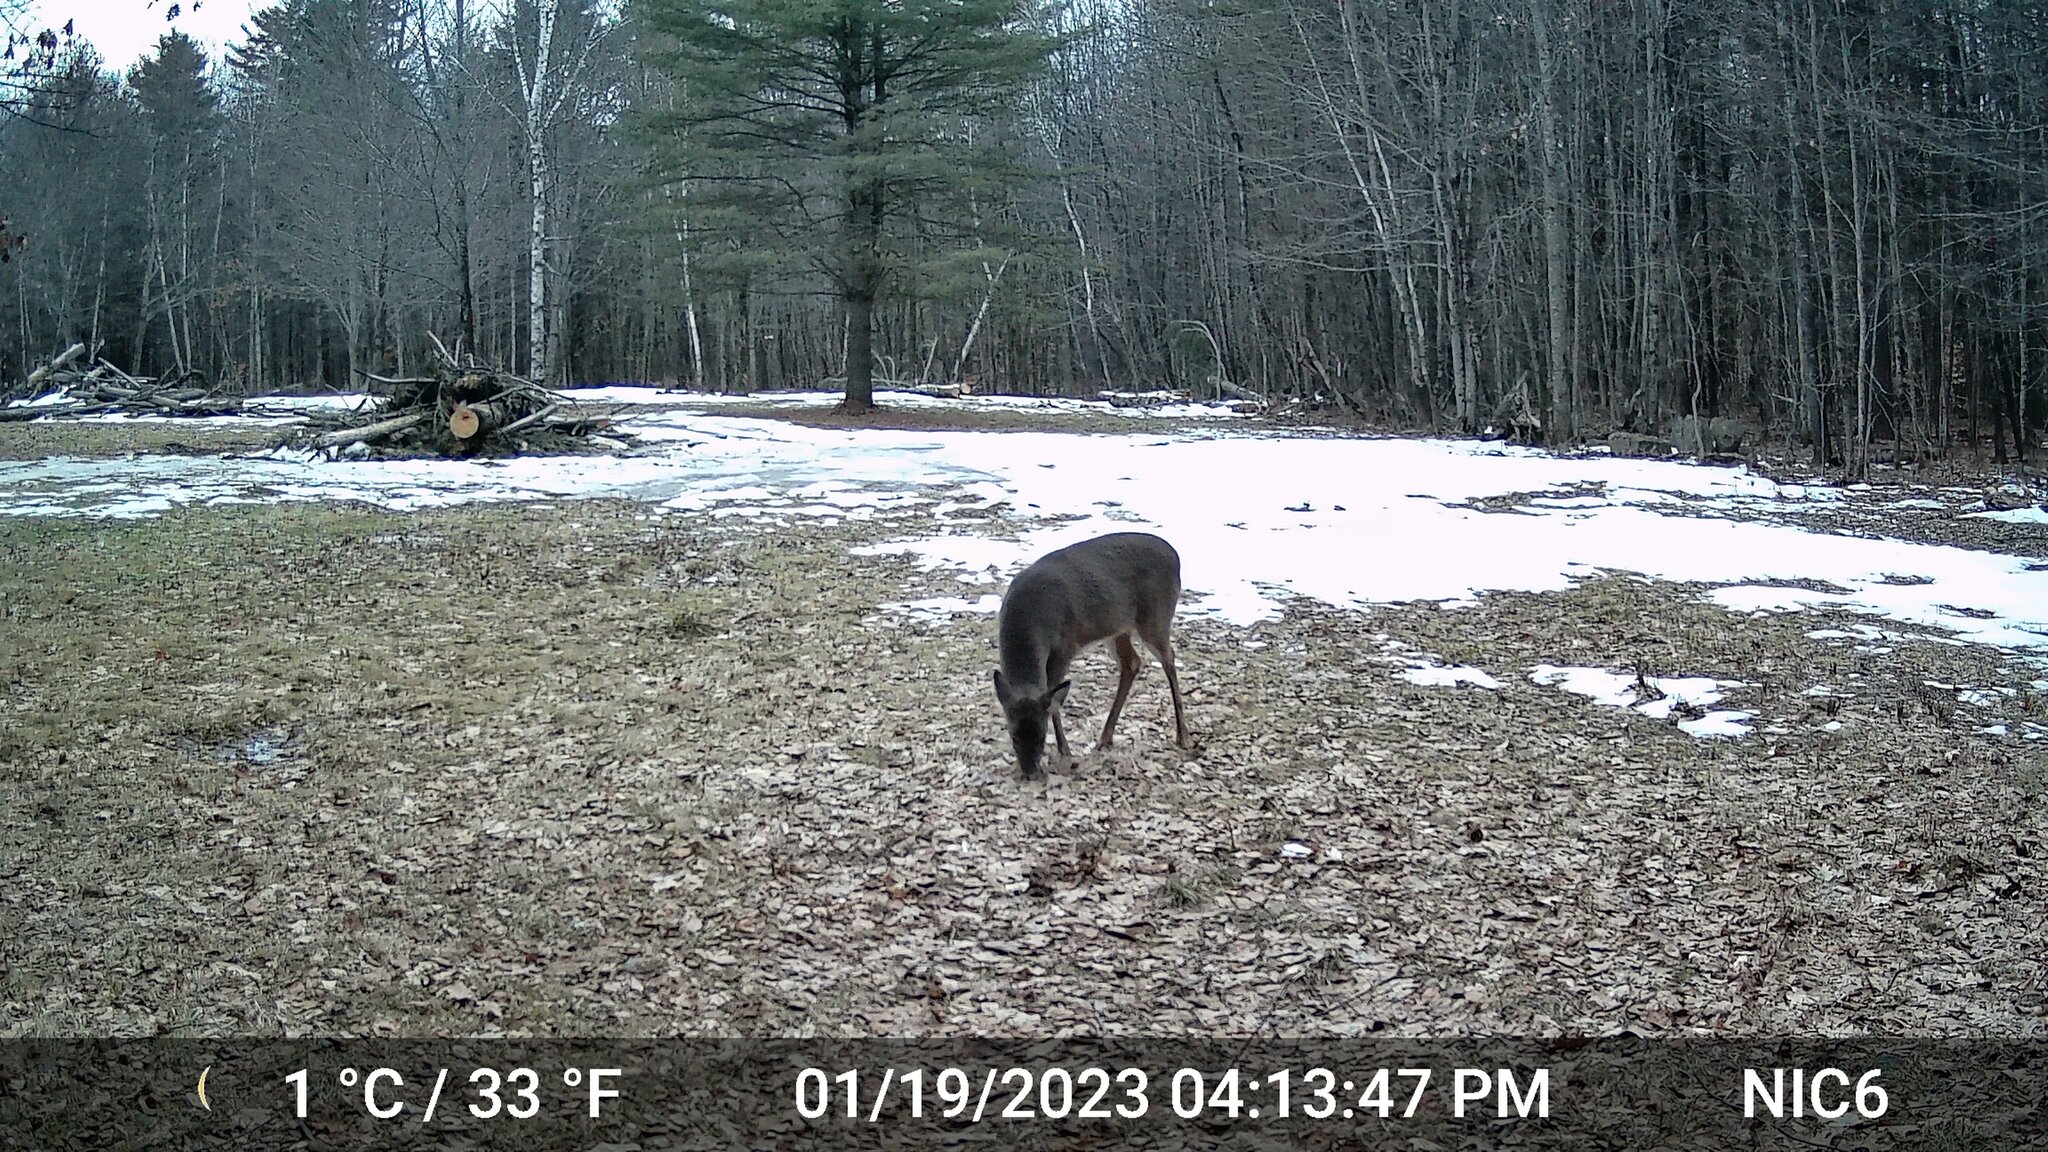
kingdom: Animalia
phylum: Chordata
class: Mammalia
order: Artiodactyla
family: Cervidae
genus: Odocoileus
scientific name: Odocoileus virginianus
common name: White-tailed deer
